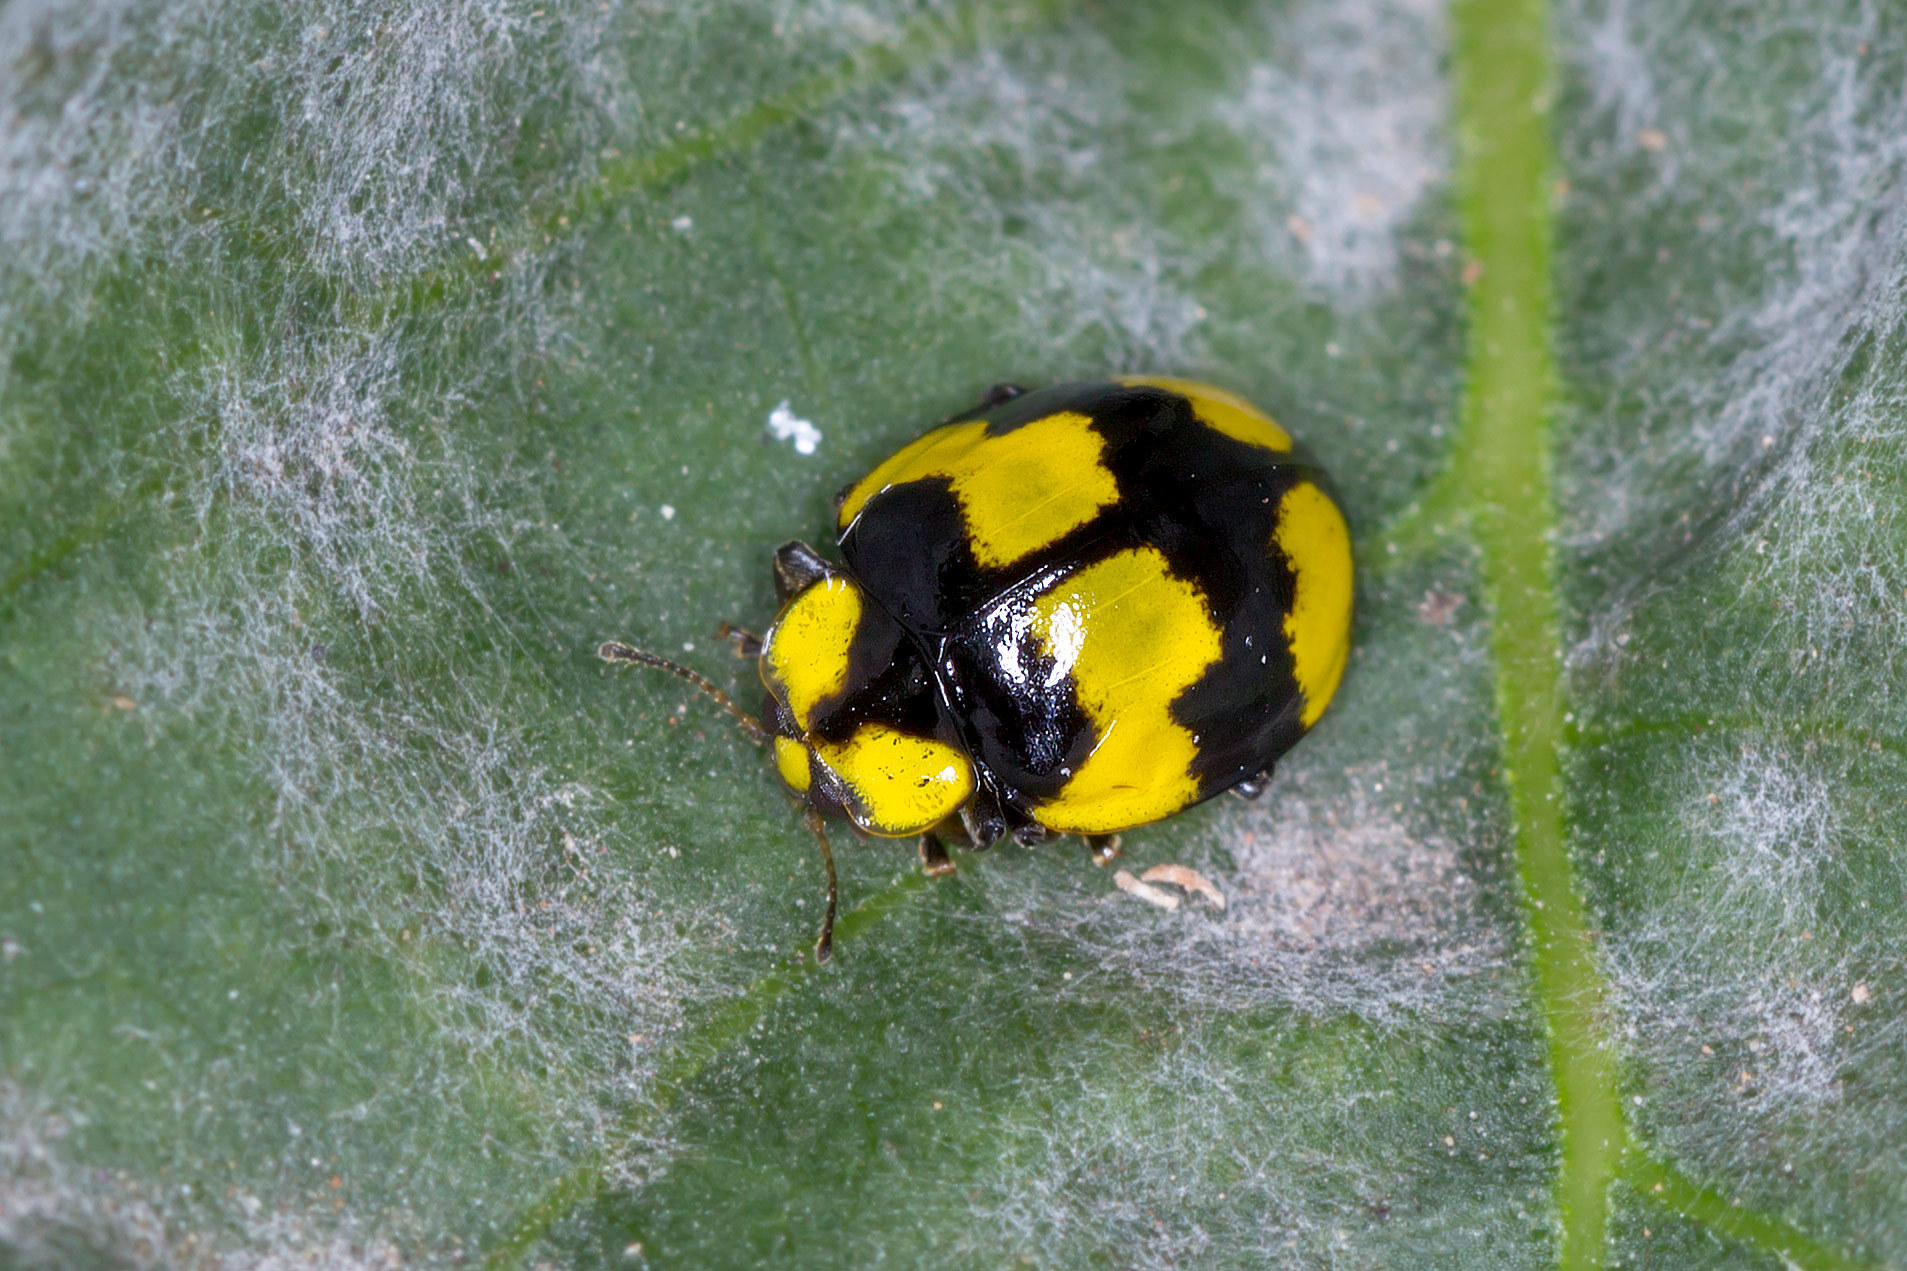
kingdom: Animalia
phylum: Arthropoda
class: Insecta
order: Coleoptera
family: Coccinellidae
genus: Illeis
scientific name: Illeis galbula
